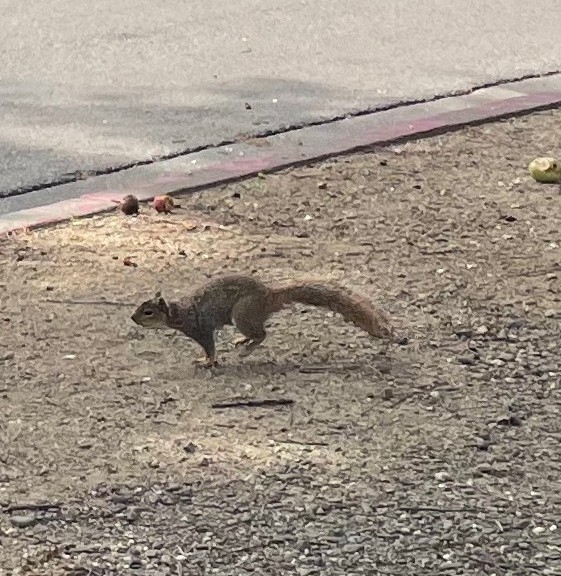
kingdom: Animalia
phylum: Chordata
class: Mammalia
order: Rodentia
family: Sciuridae
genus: Sciurus
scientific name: Sciurus niger
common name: Fox squirrel
